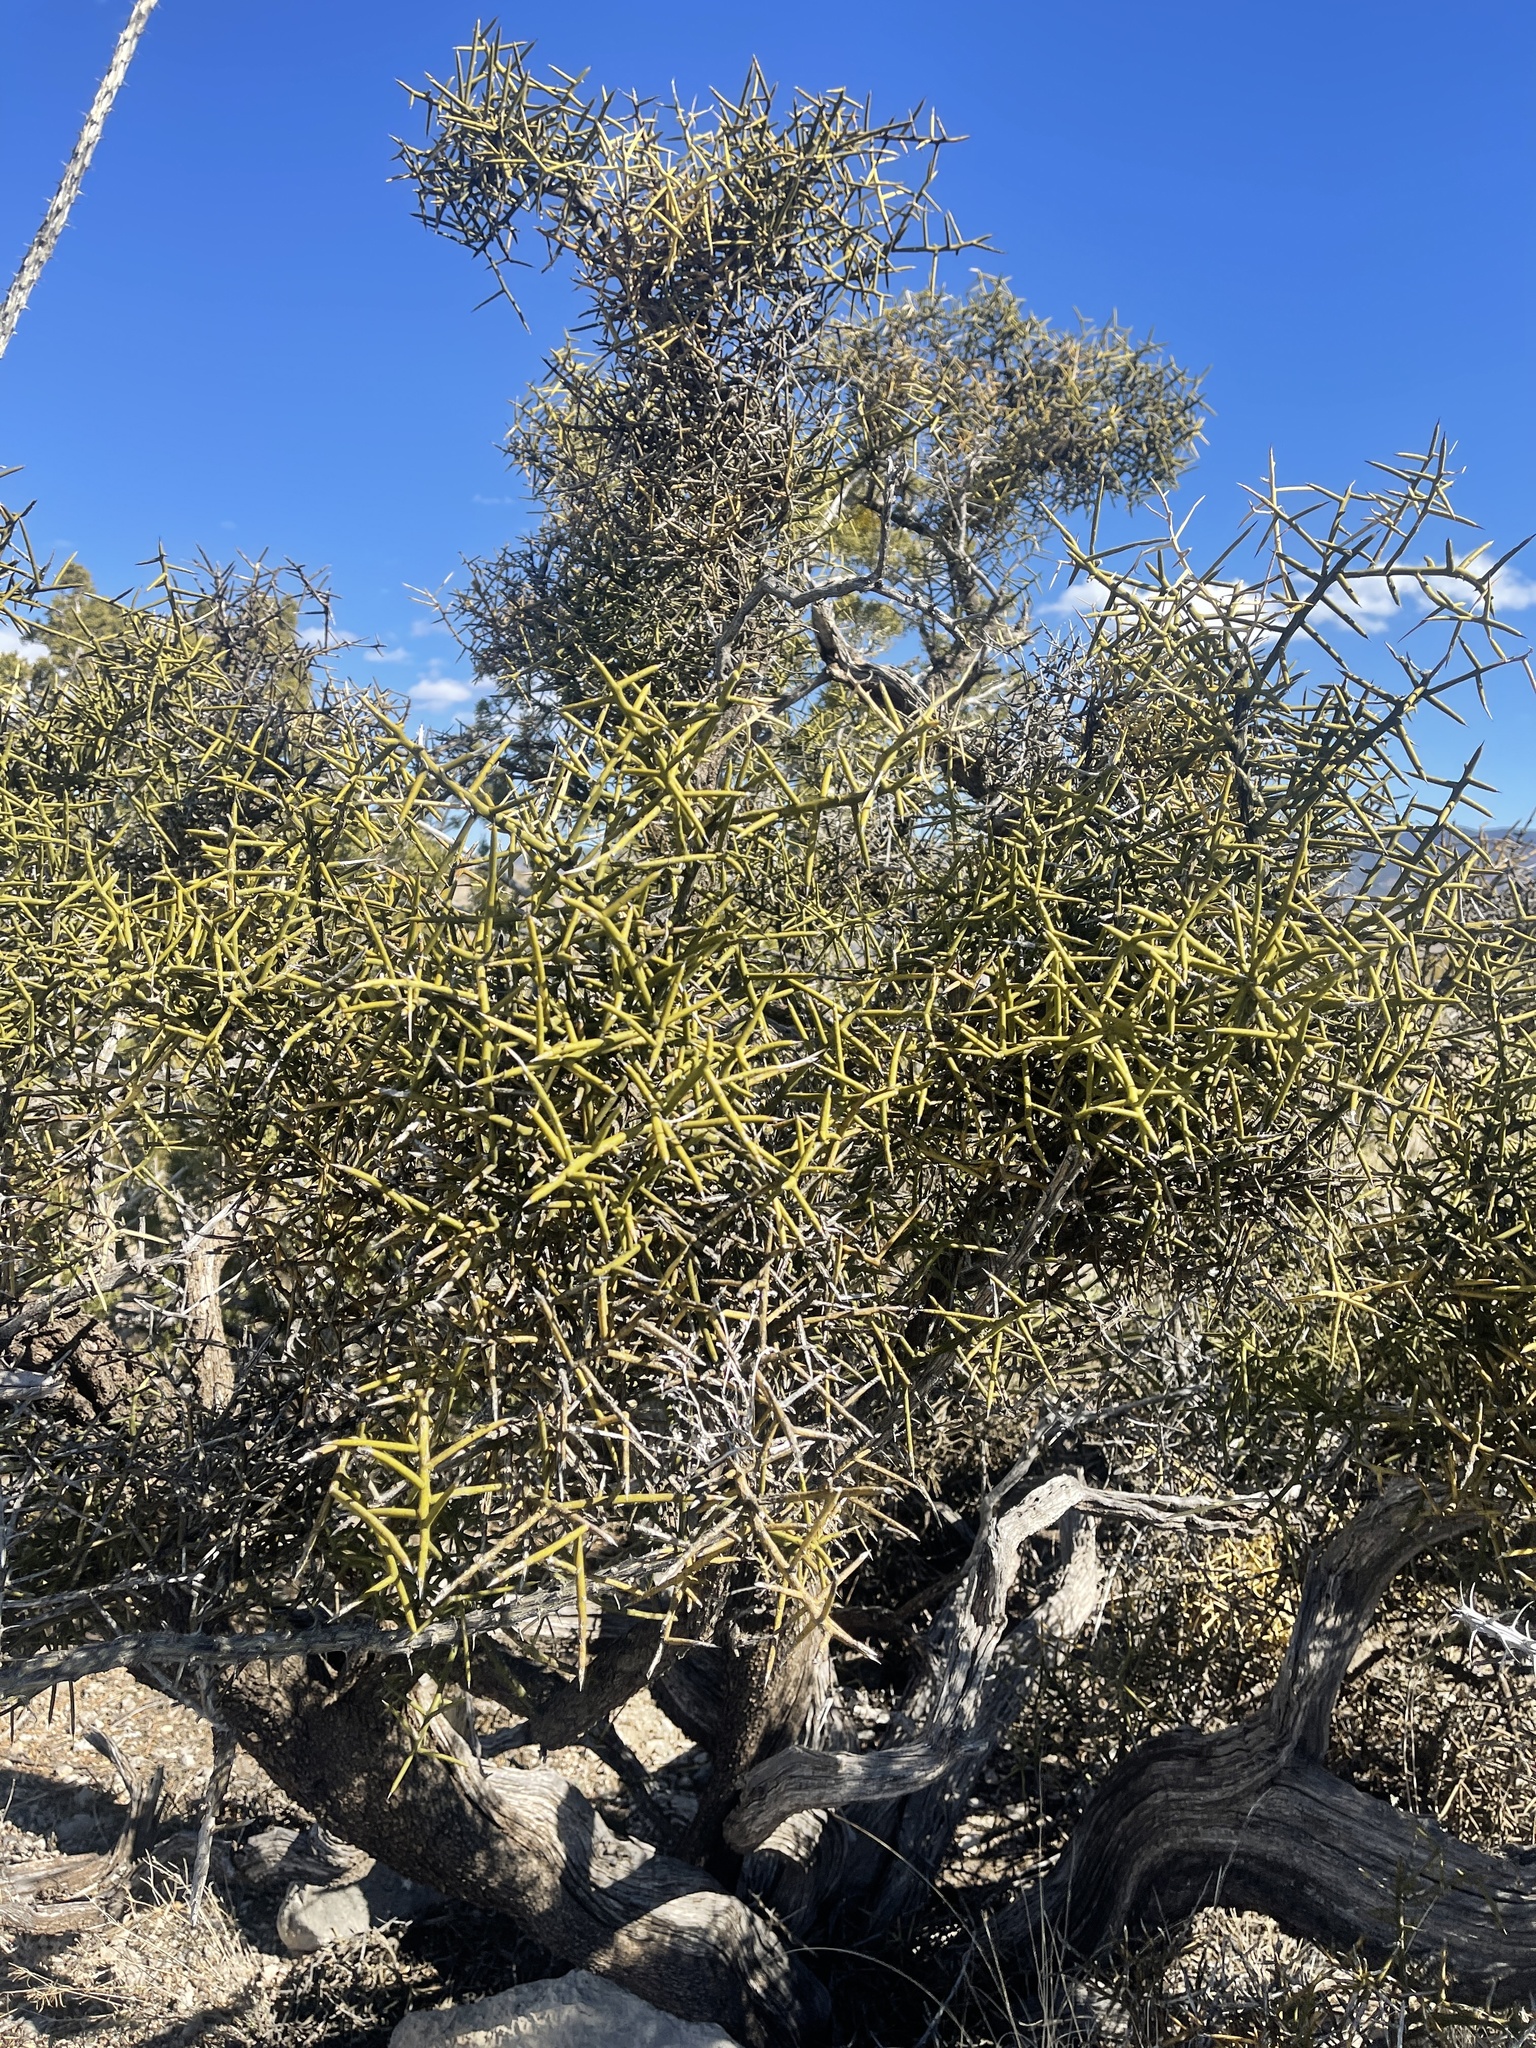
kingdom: Plantae
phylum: Tracheophyta
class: Magnoliopsida
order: Brassicales
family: Koeberliniaceae
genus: Koeberlinia
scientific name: Koeberlinia spinosa
